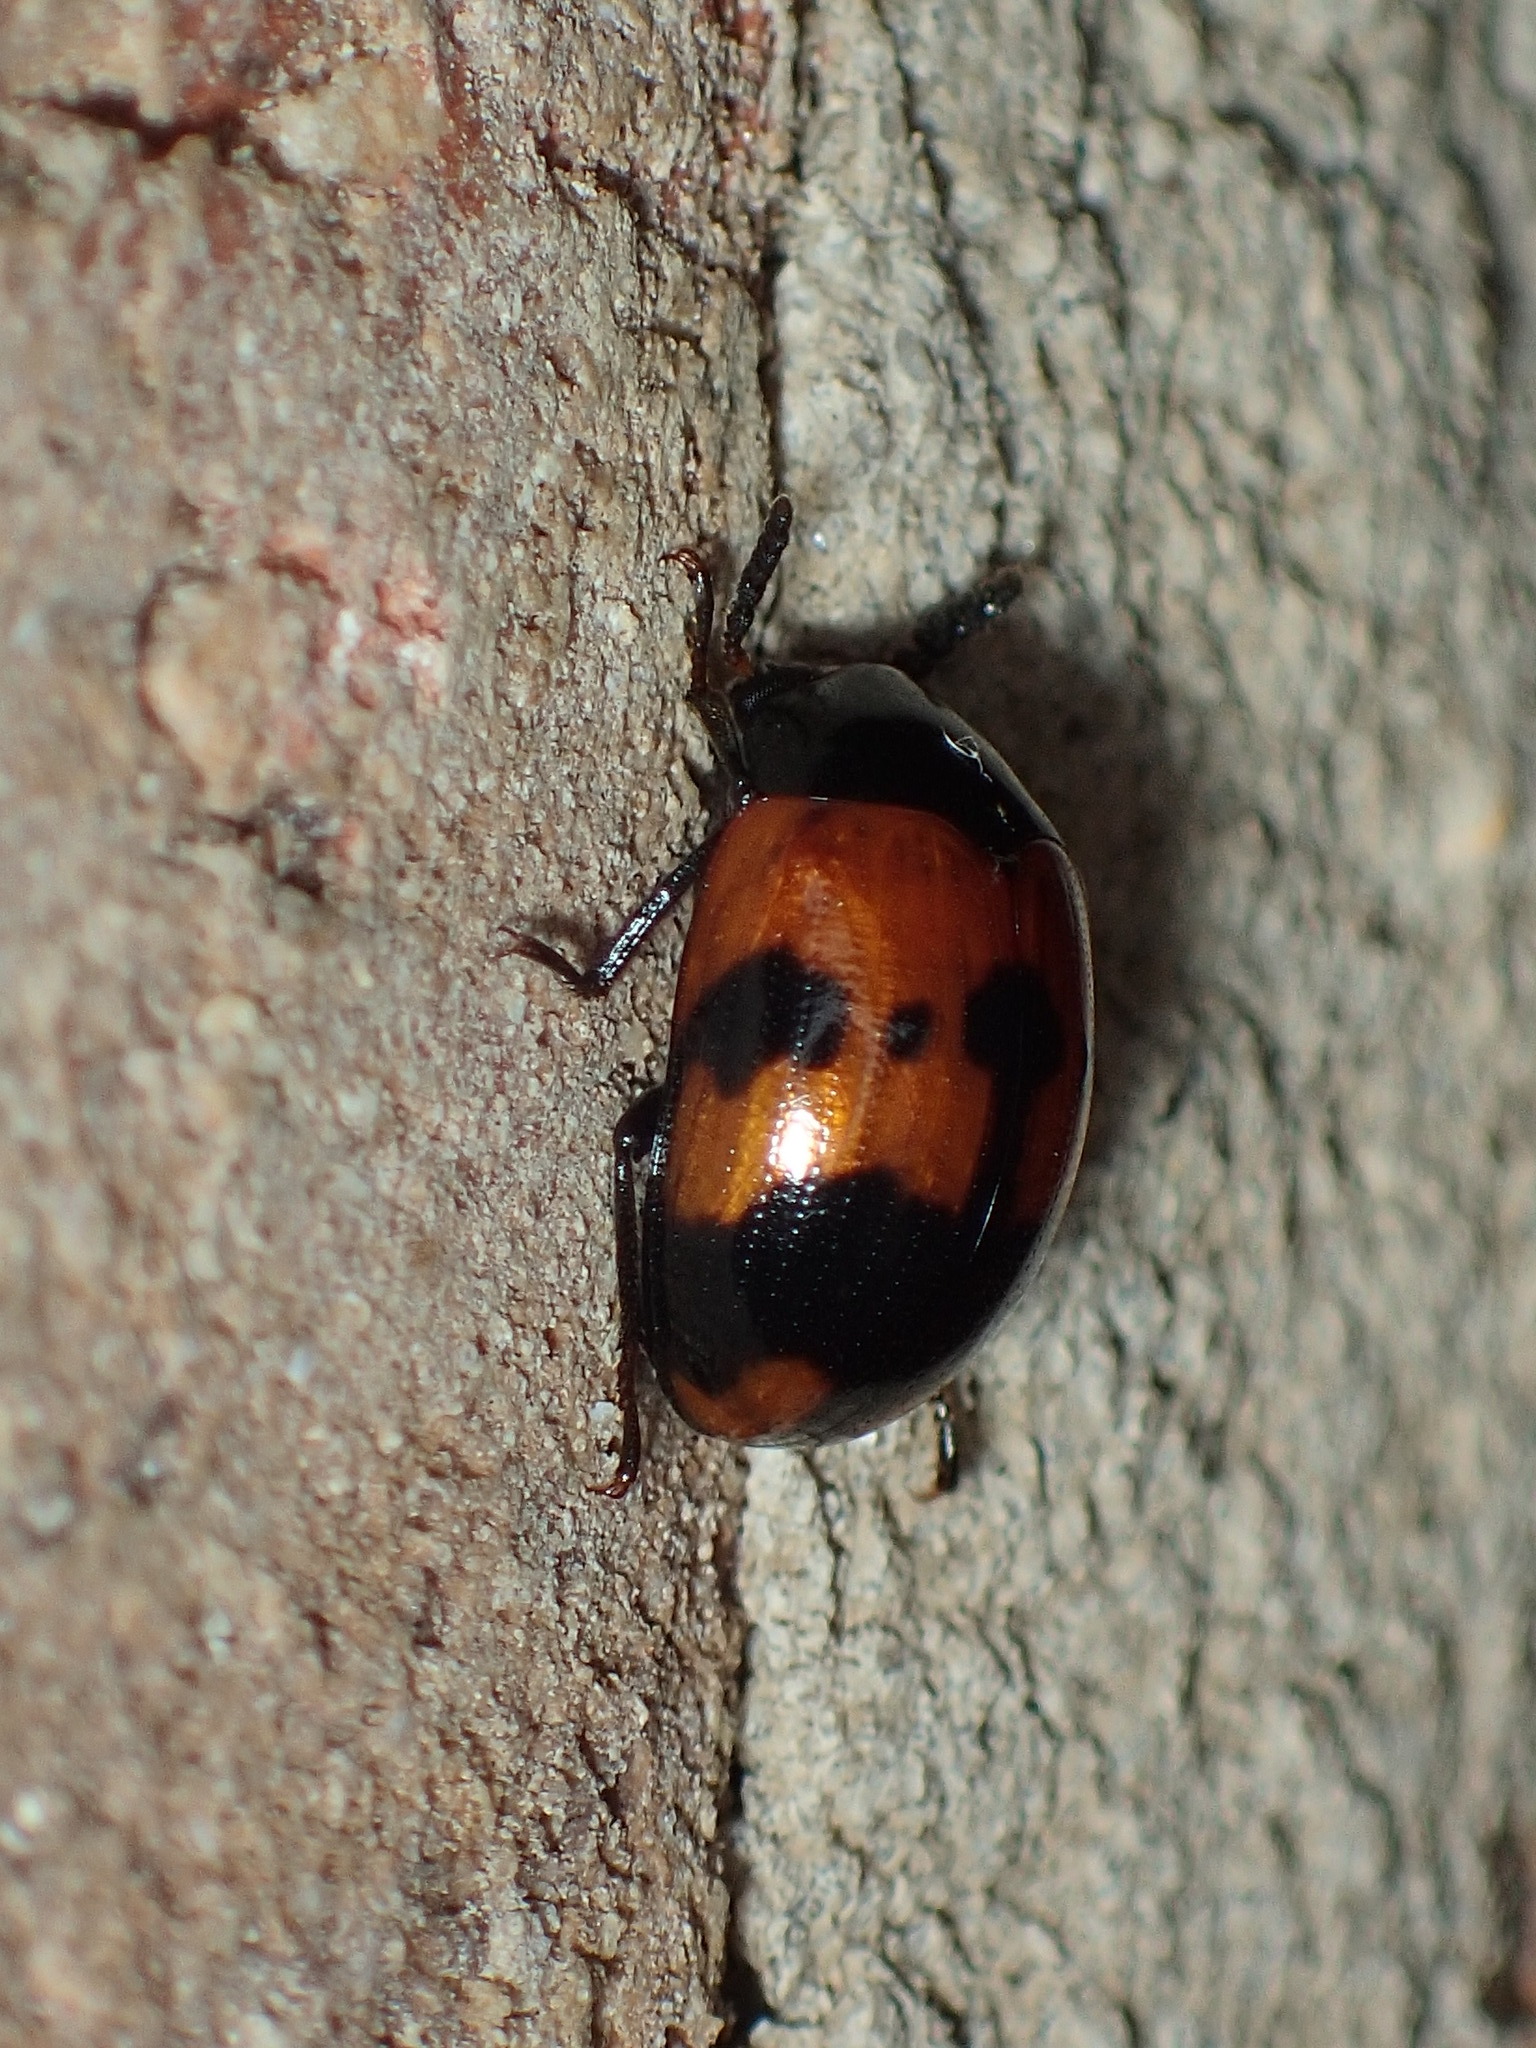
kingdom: Animalia
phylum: Arthropoda
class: Insecta
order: Coleoptera
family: Tenebrionidae
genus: Diaperis
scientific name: Diaperis nigronotata
